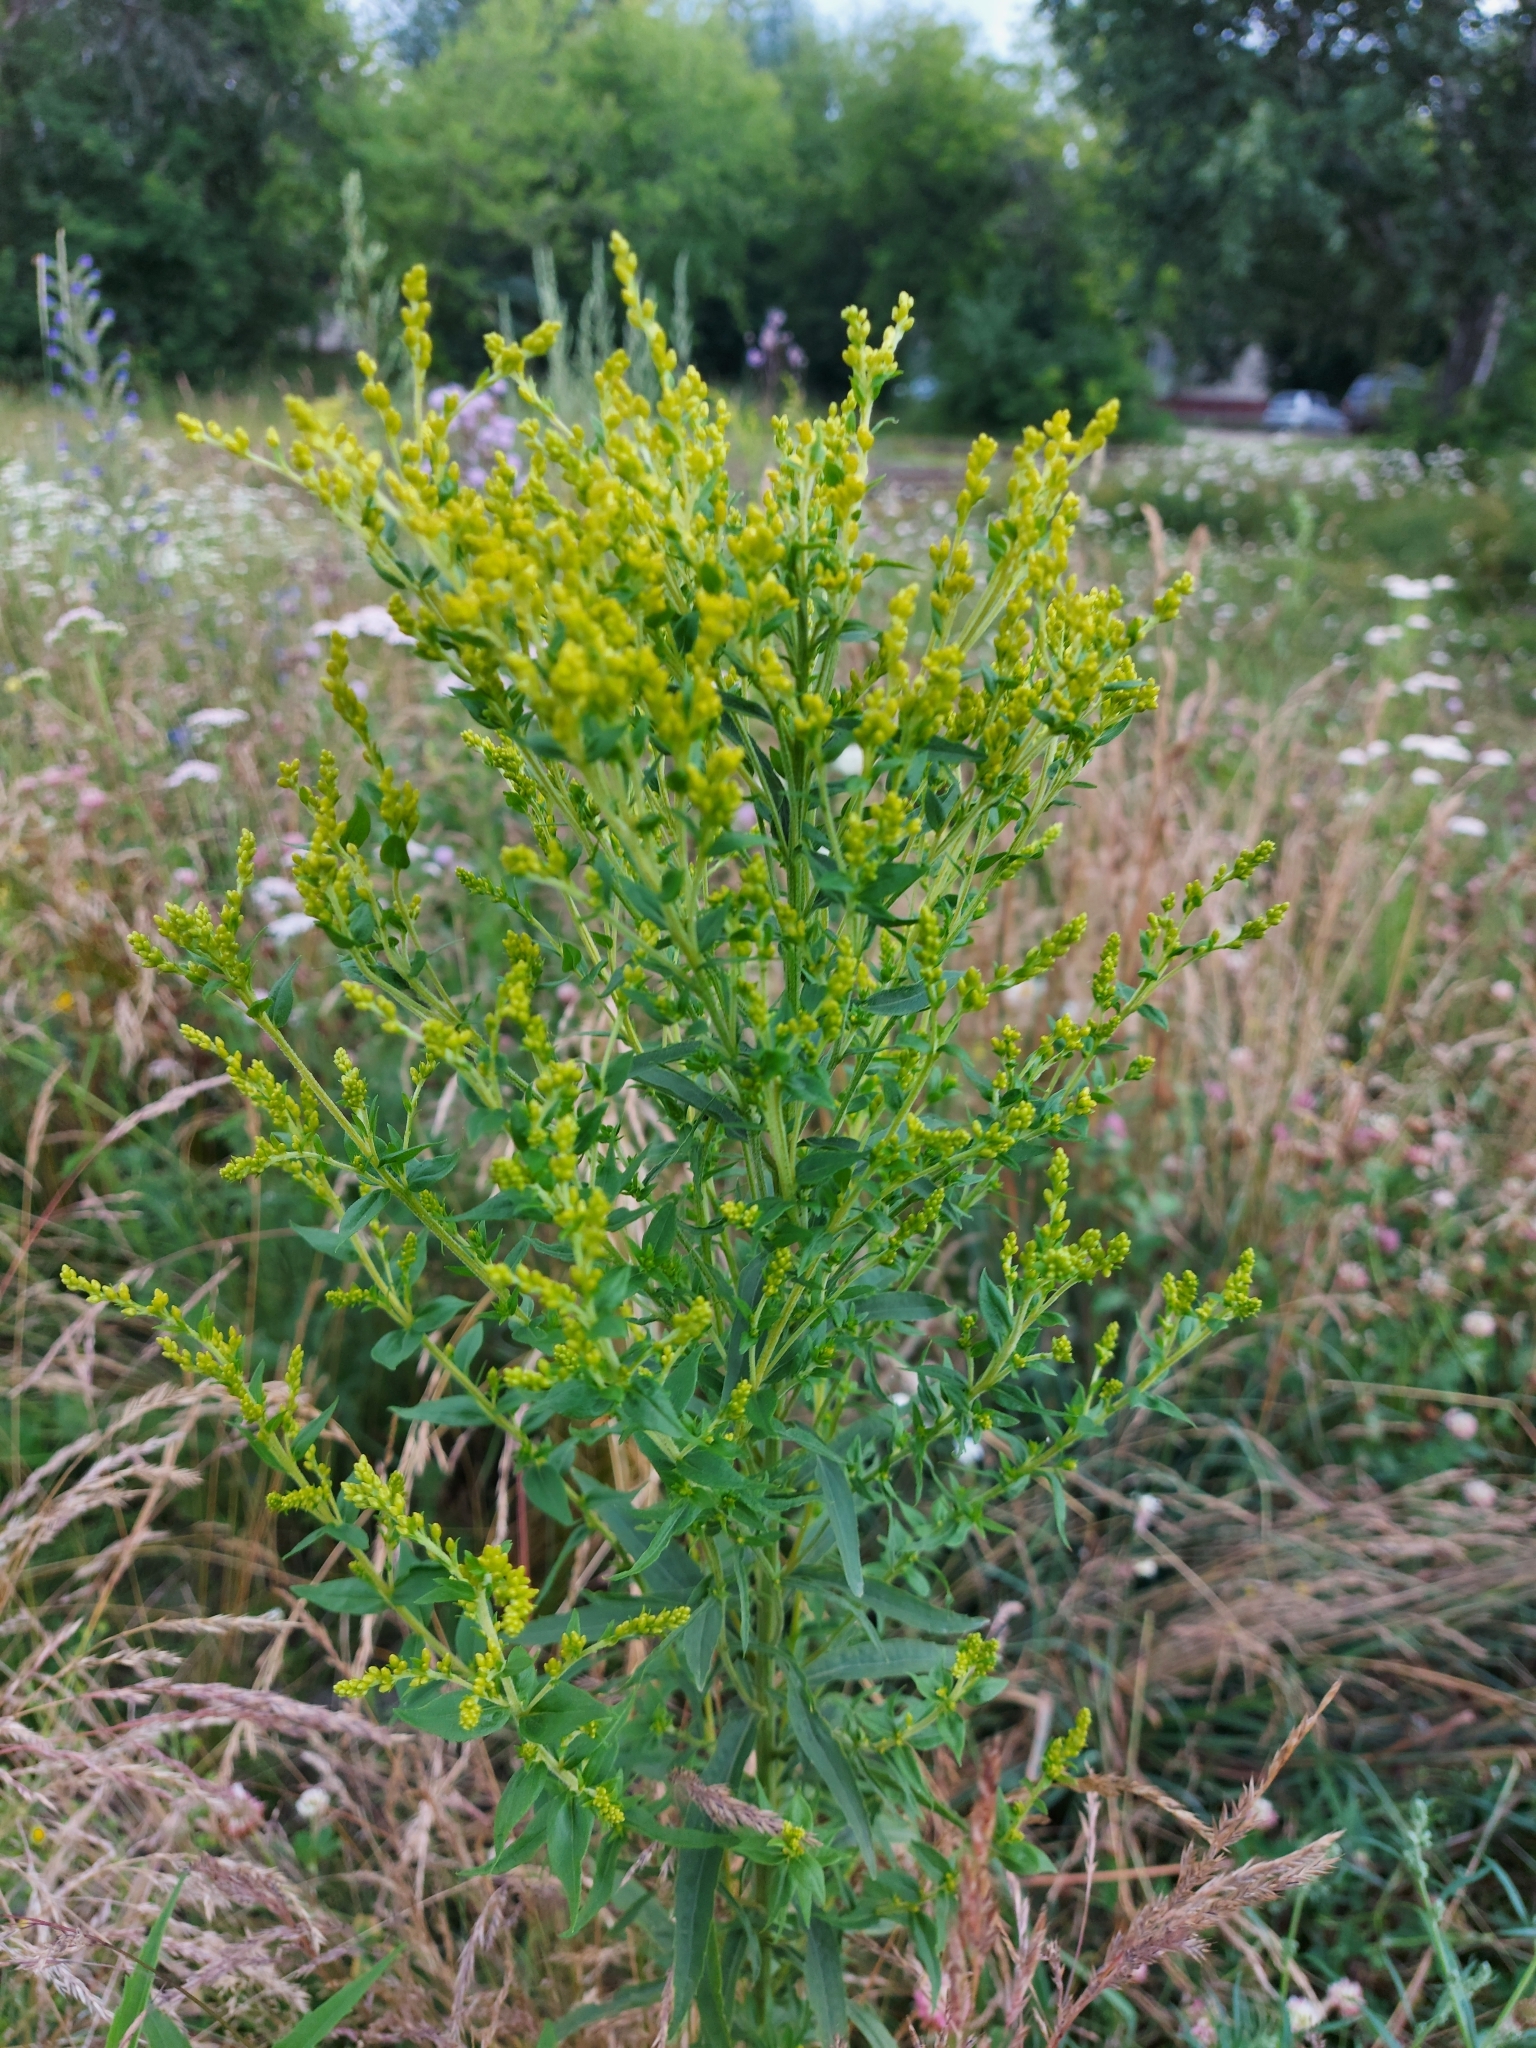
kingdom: Plantae
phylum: Tracheophyta
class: Magnoliopsida
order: Asterales
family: Asteraceae
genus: Solidago
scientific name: Solidago canadensis
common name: Canada goldenrod
